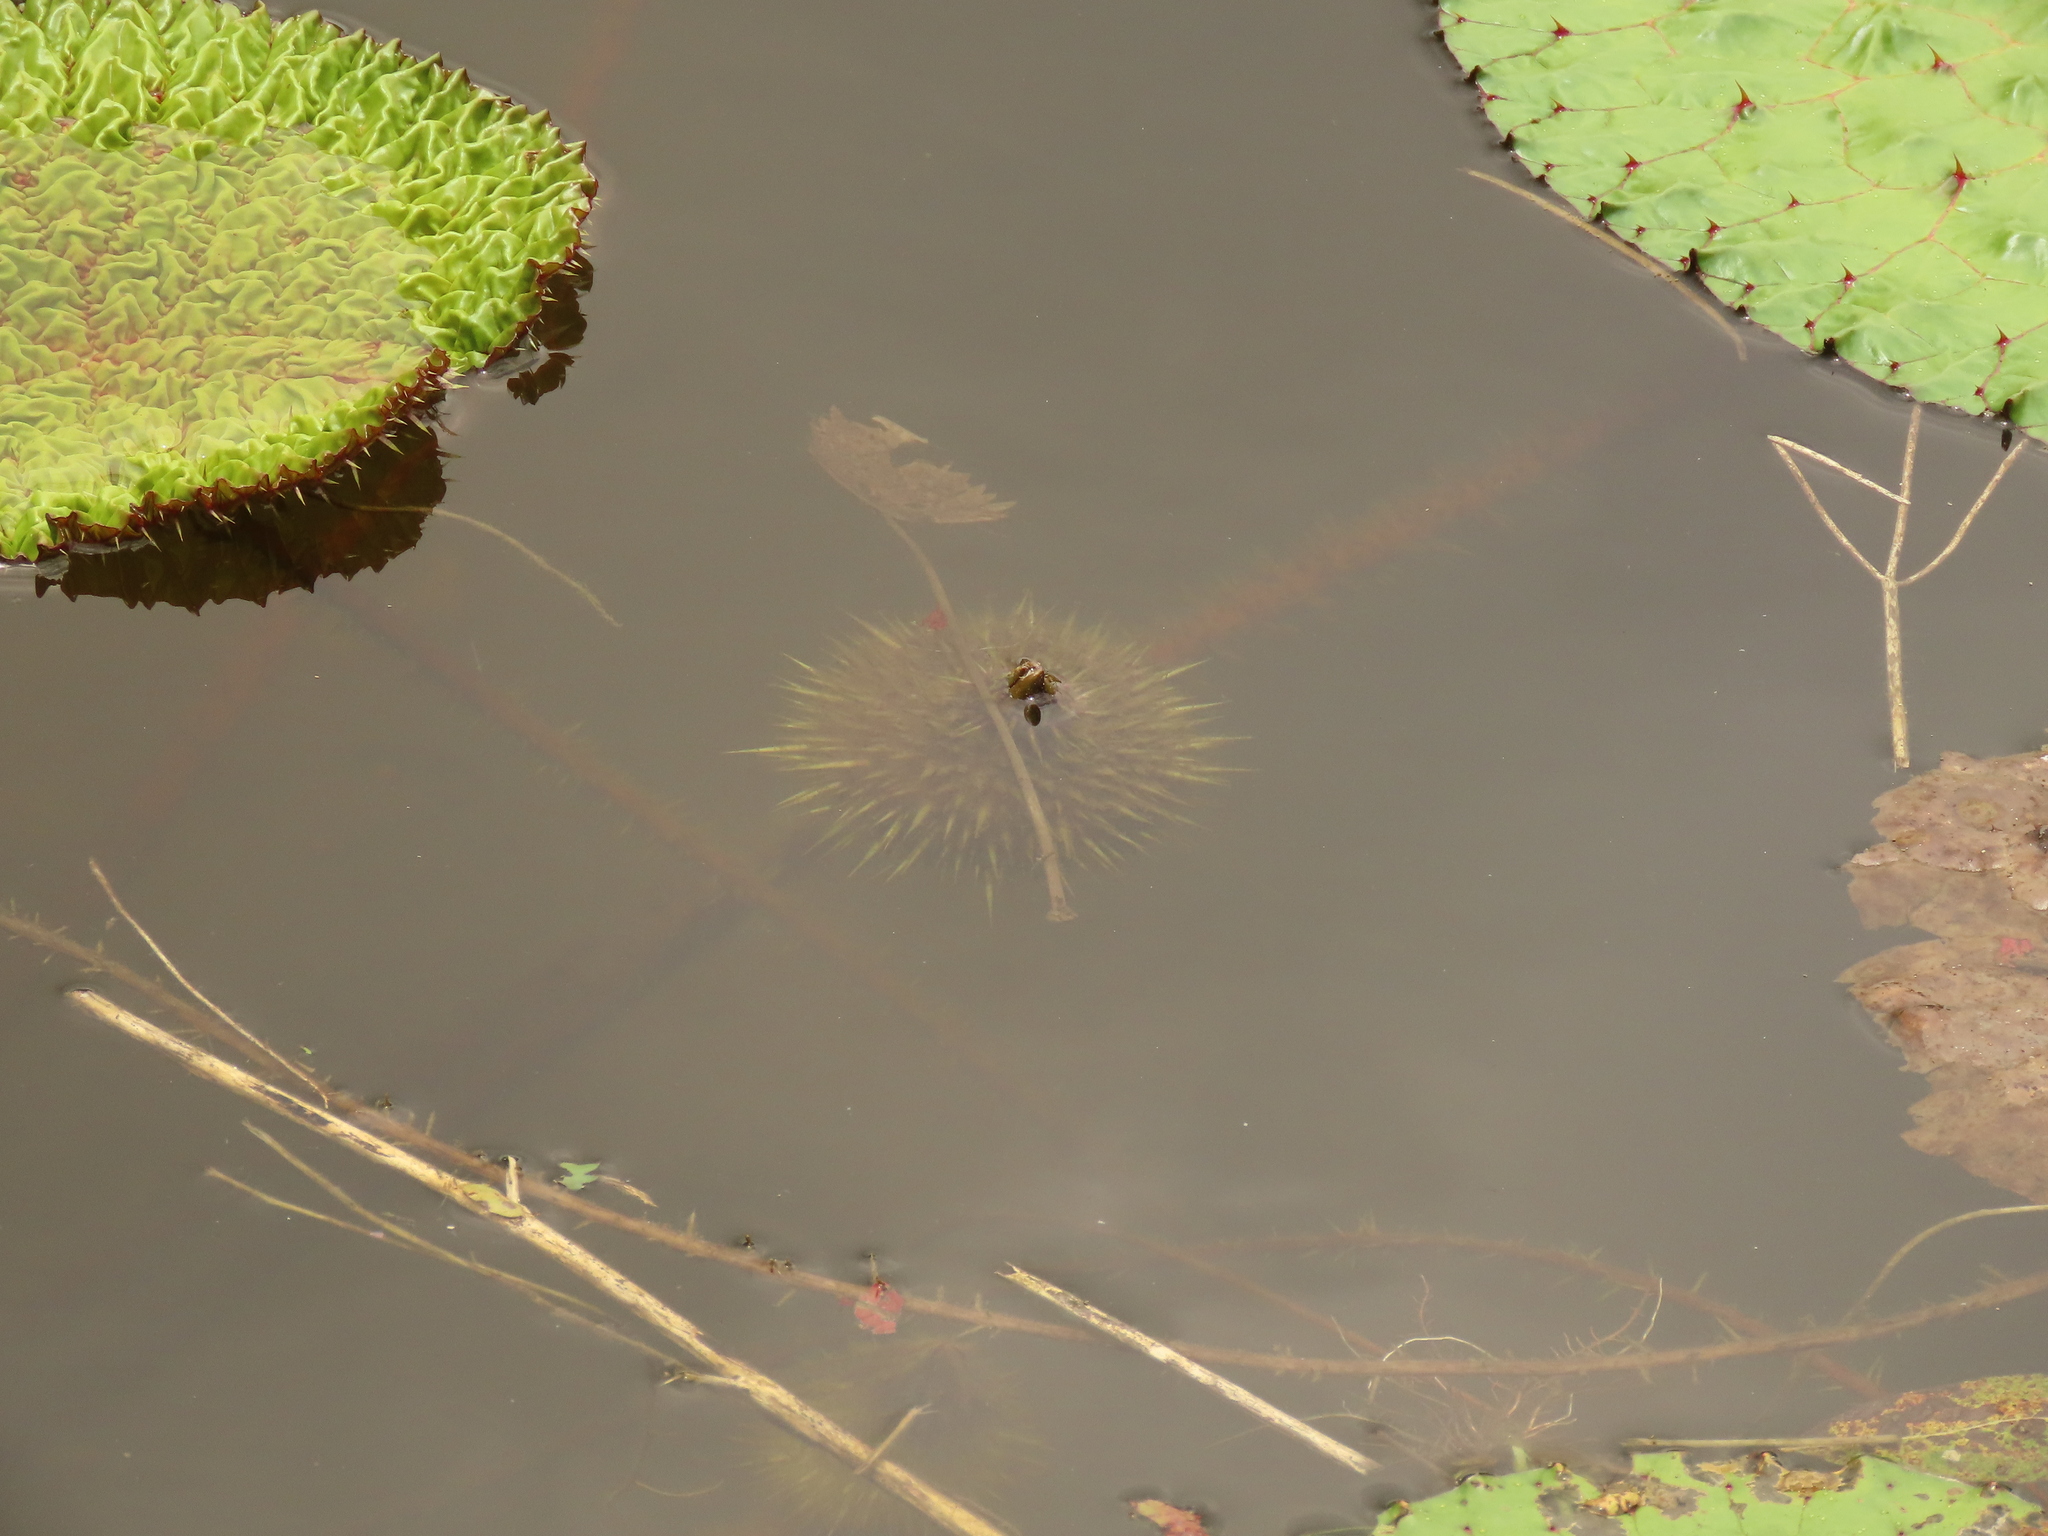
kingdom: Plantae
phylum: Tracheophyta
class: Magnoliopsida
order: Nymphaeales
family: Nymphaeaceae
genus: Euryale
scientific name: Euryale ferox
